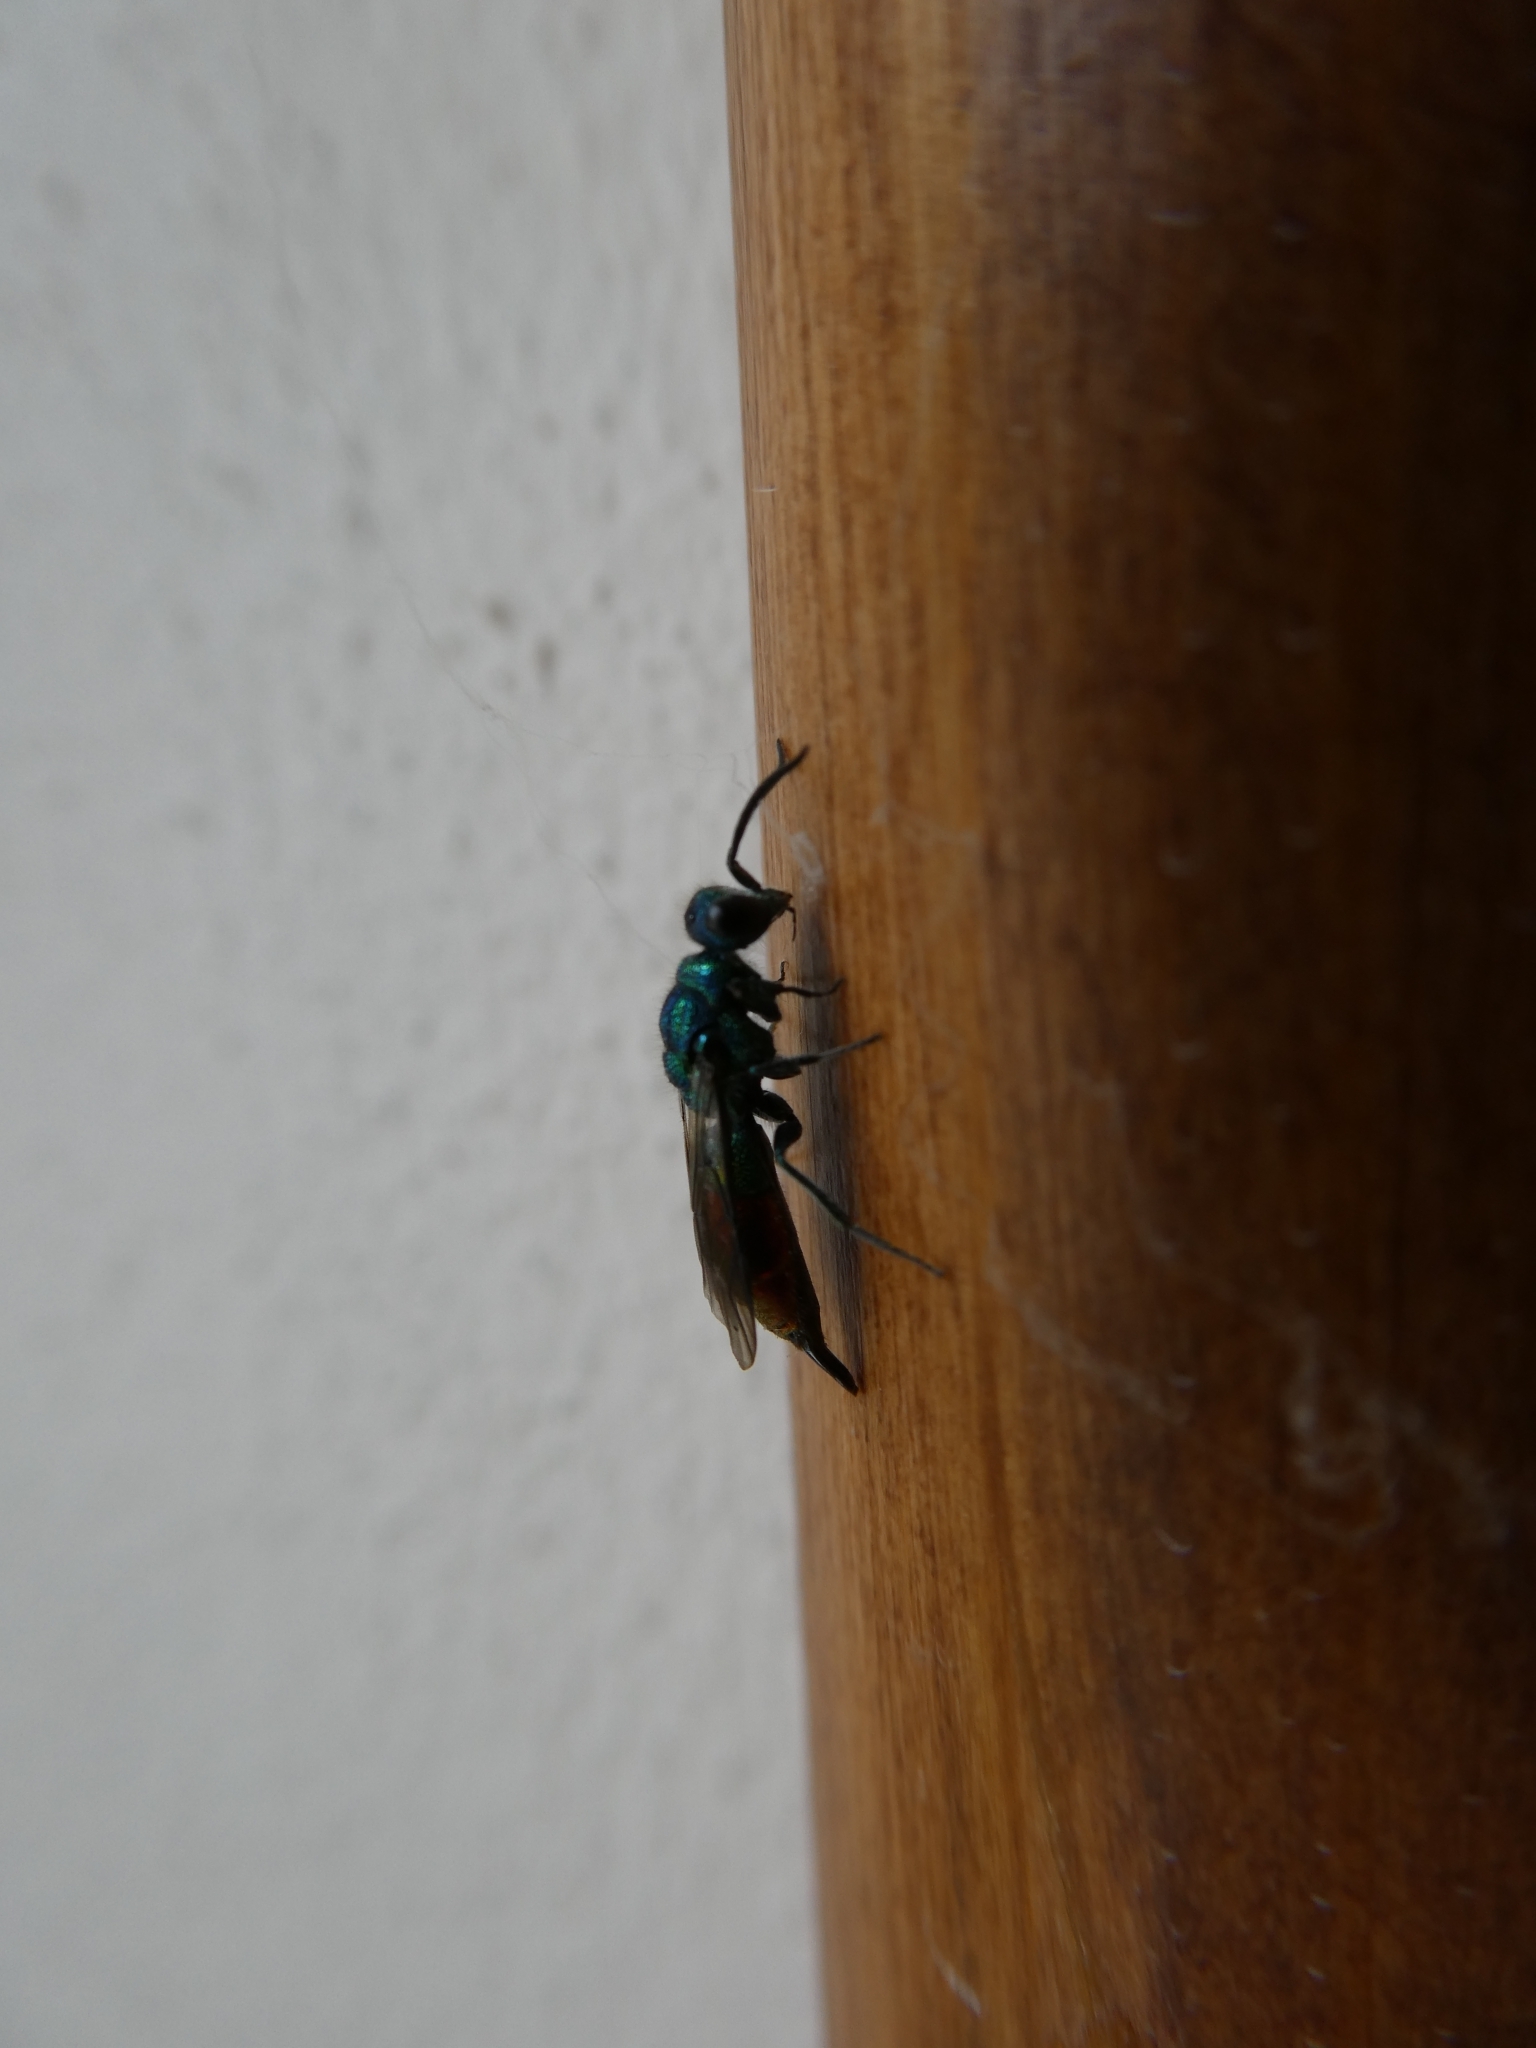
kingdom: Animalia
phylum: Arthropoda
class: Insecta
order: Hymenoptera
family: Chrysididae
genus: Chrysis
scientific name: Chrysis fulgida
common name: Shimmering ruby-tail
